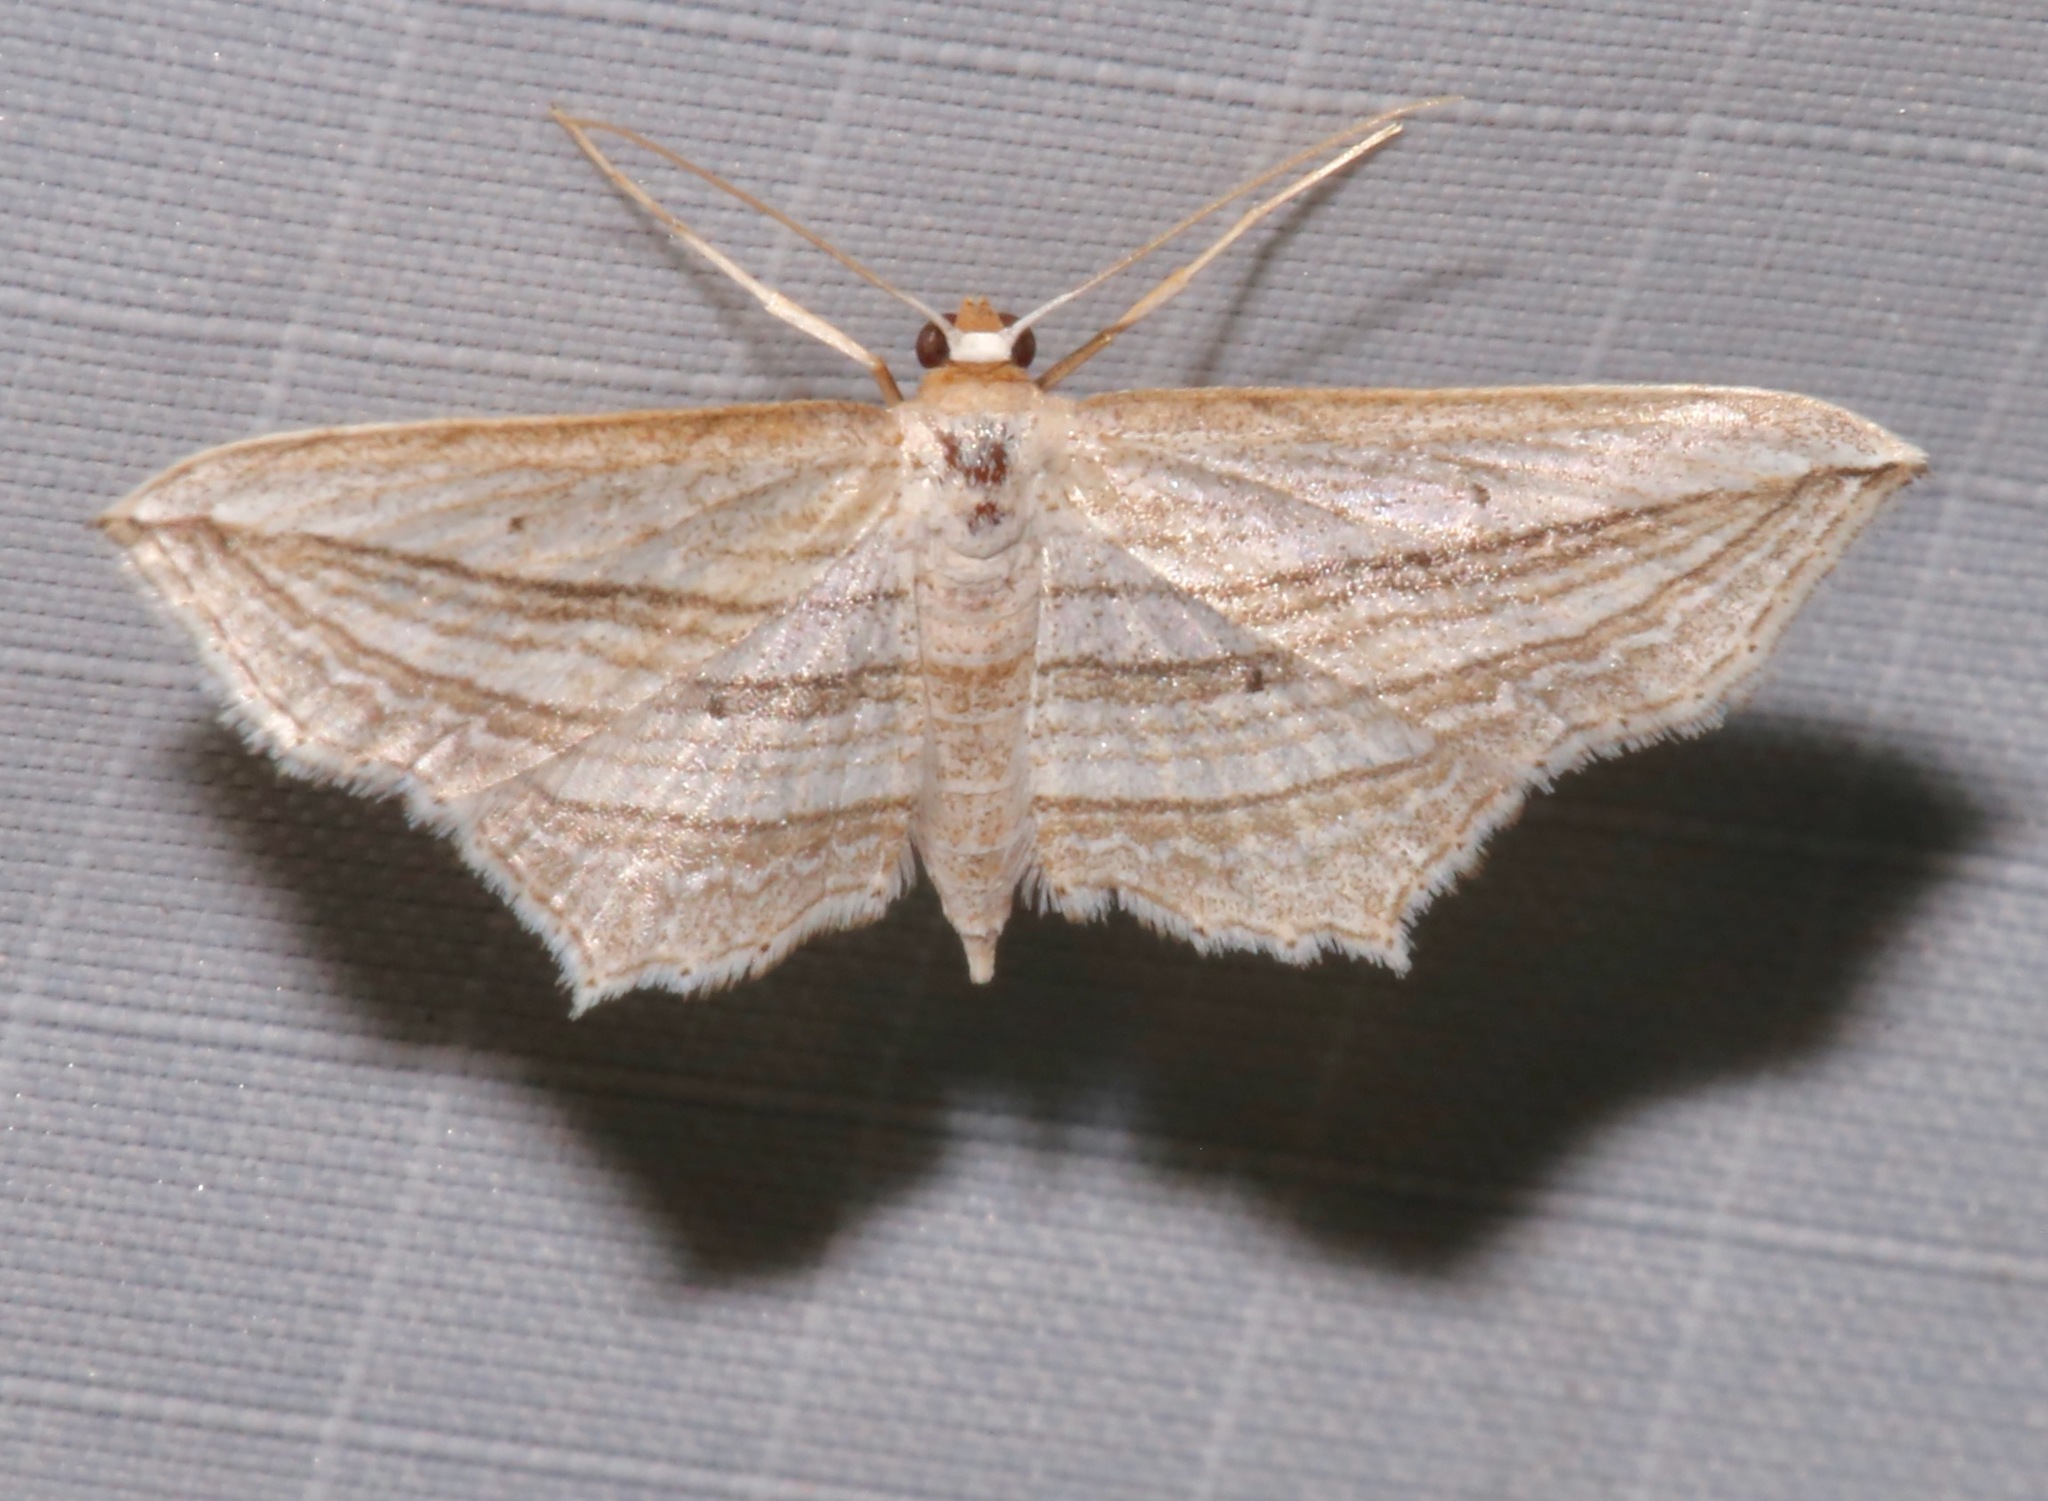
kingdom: Animalia
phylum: Arthropoda
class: Insecta
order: Lepidoptera
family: Geometridae
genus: Arcobara
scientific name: Arcobara multilineata
